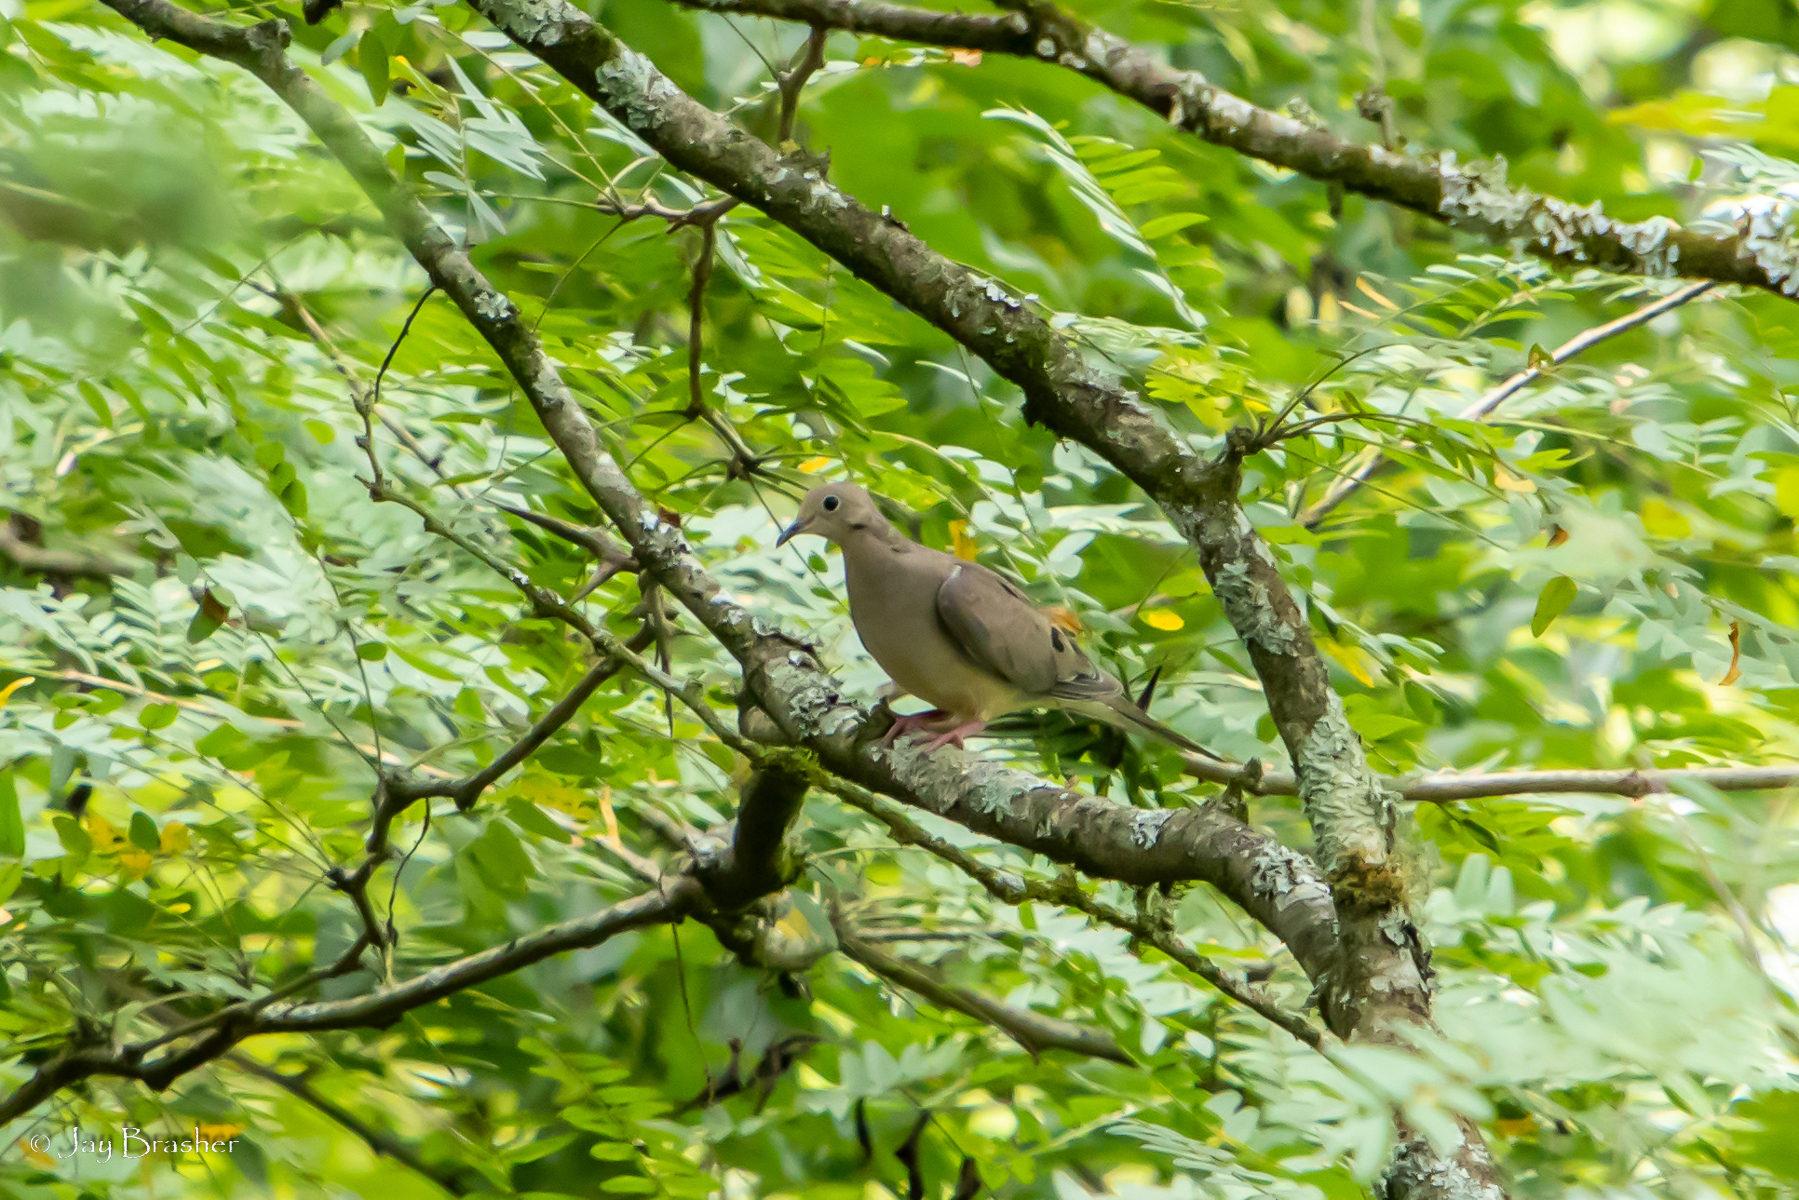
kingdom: Animalia
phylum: Chordata
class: Aves
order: Columbiformes
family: Columbidae
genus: Zenaida
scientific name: Zenaida macroura
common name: Mourning dove
